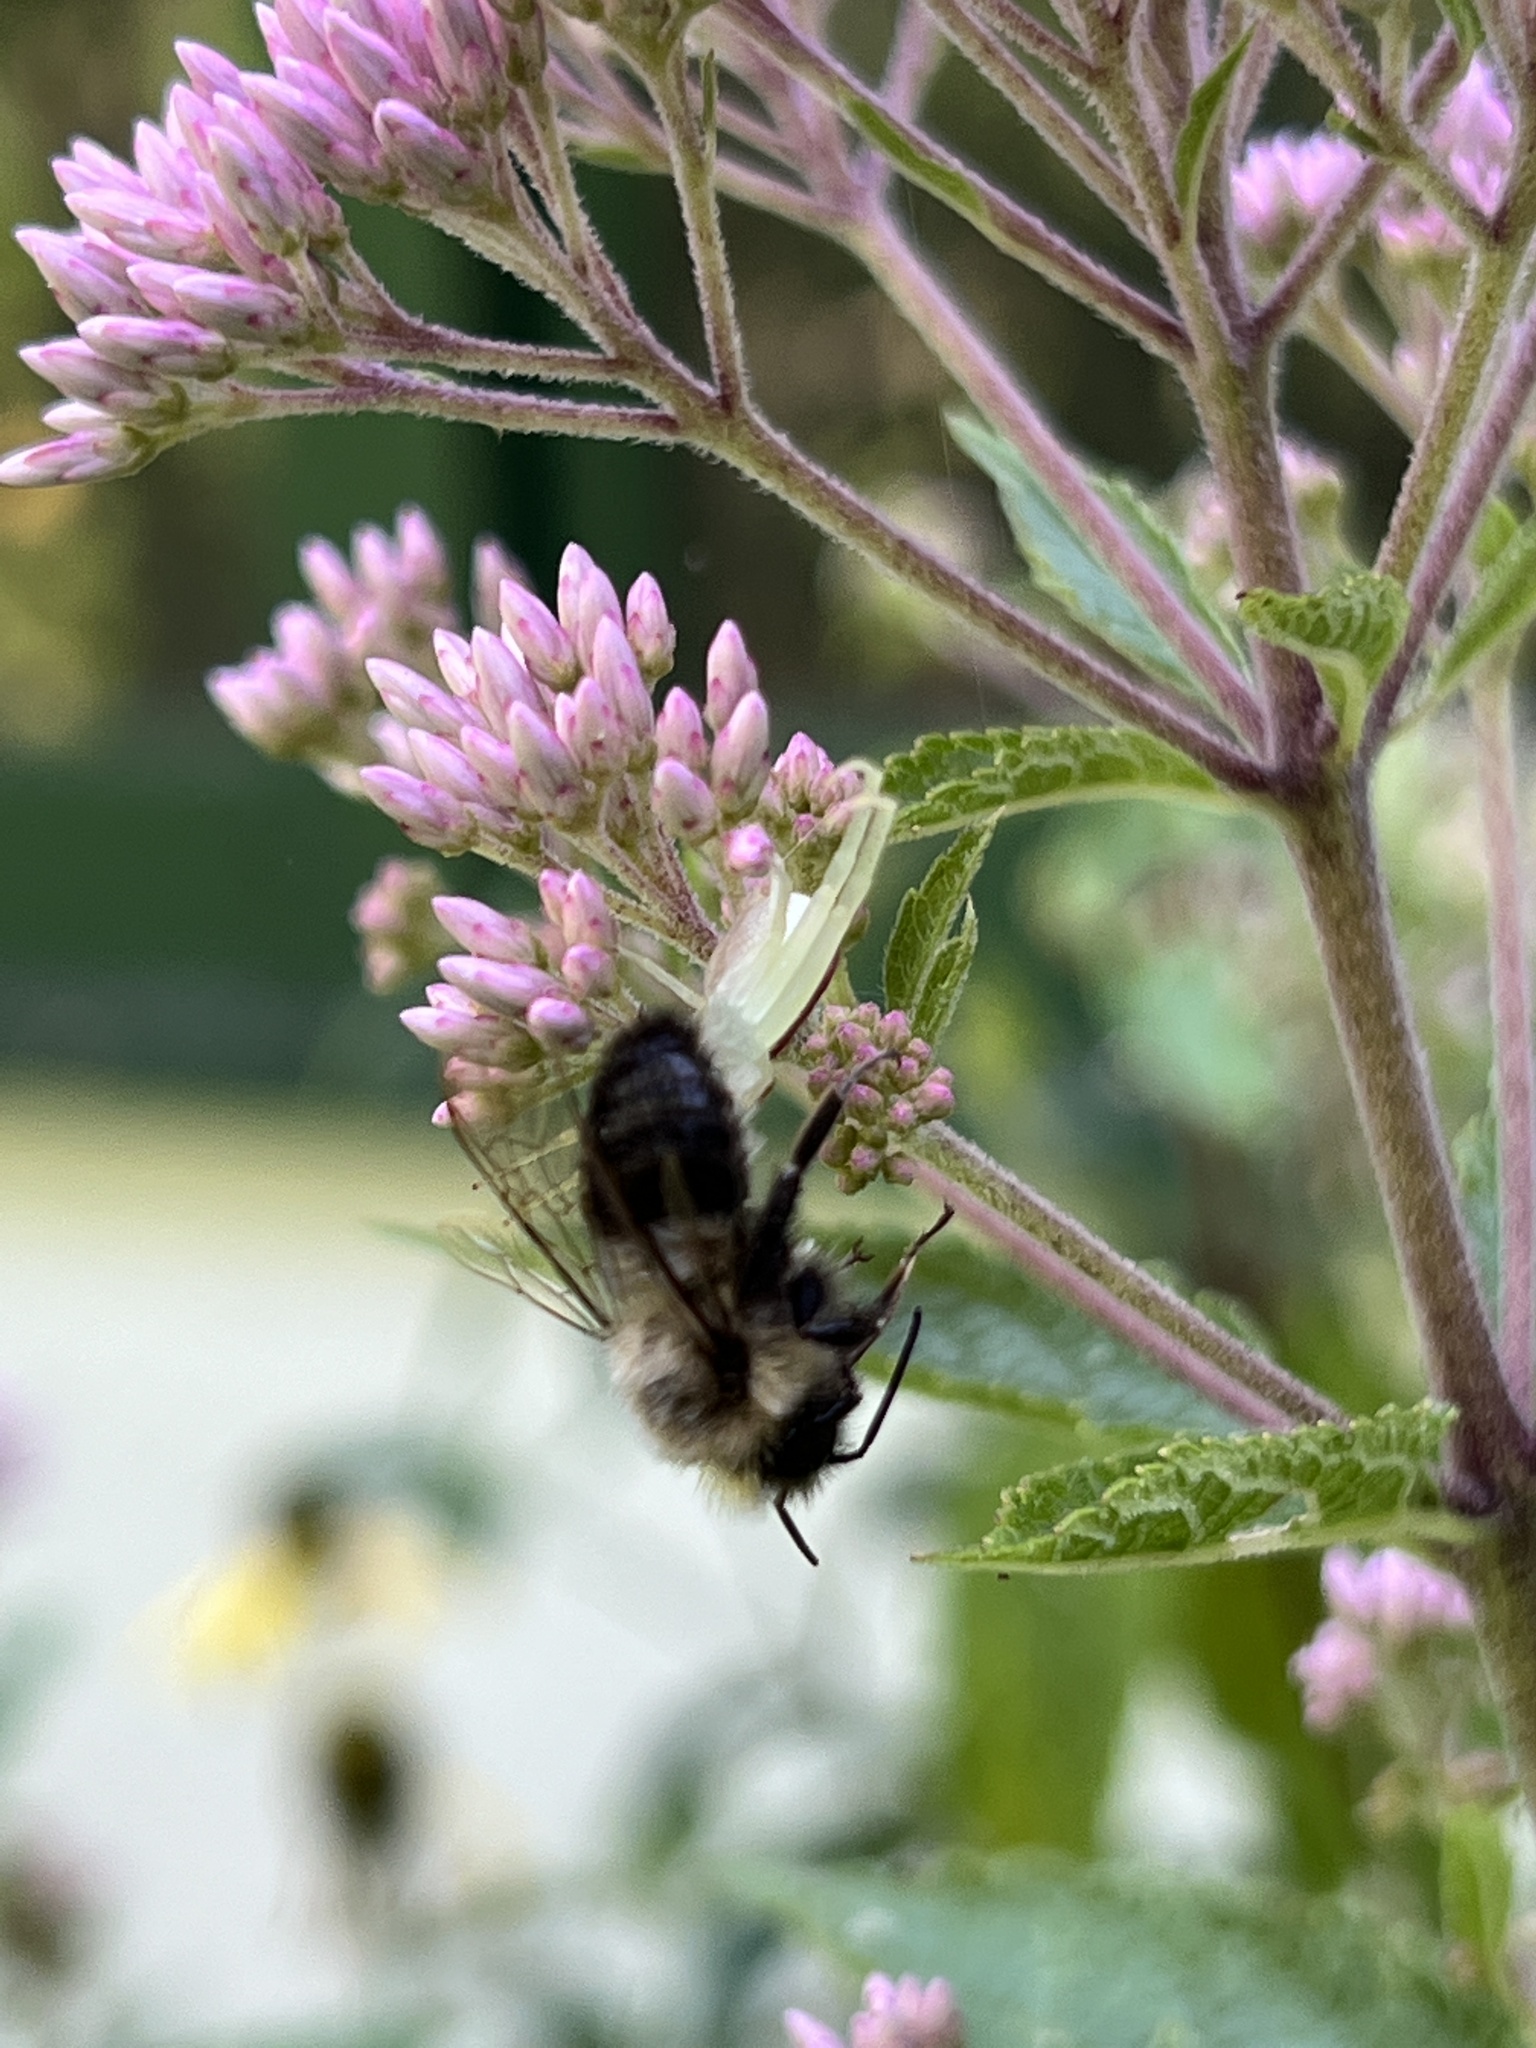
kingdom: Animalia
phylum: Arthropoda
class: Arachnida
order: Araneae
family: Thomisidae
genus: Misumessus
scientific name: Misumessus oblongus
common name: American green crab spider
